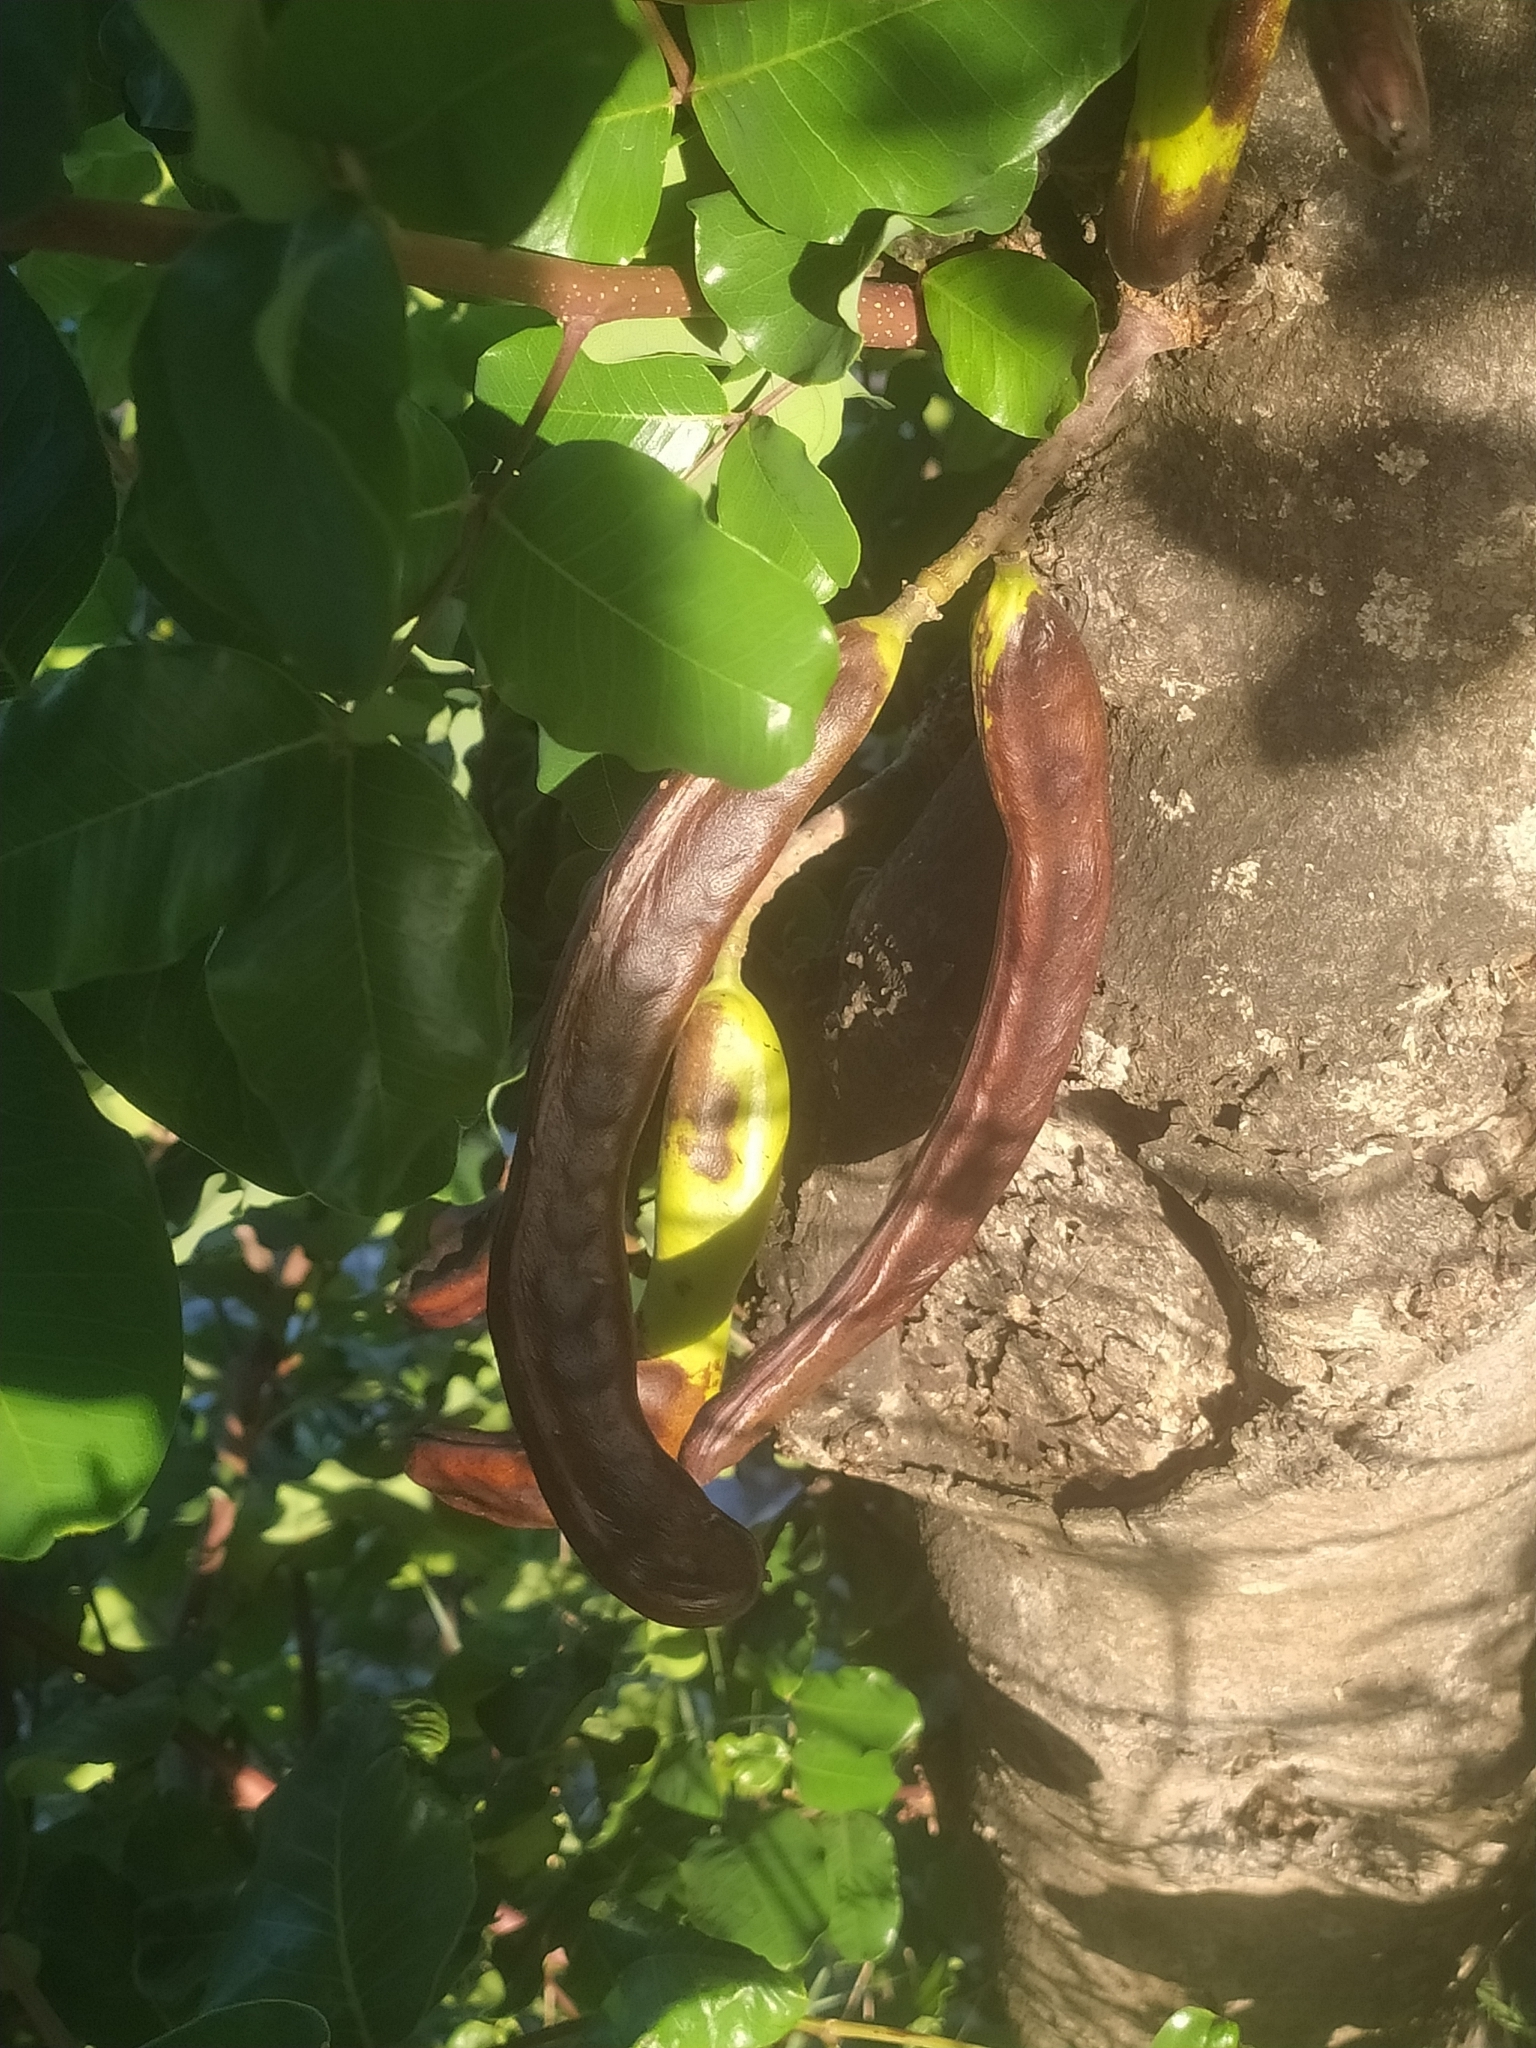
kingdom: Plantae
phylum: Tracheophyta
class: Magnoliopsida
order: Fabales
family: Fabaceae
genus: Ceratonia
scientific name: Ceratonia siliqua
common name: Carob
